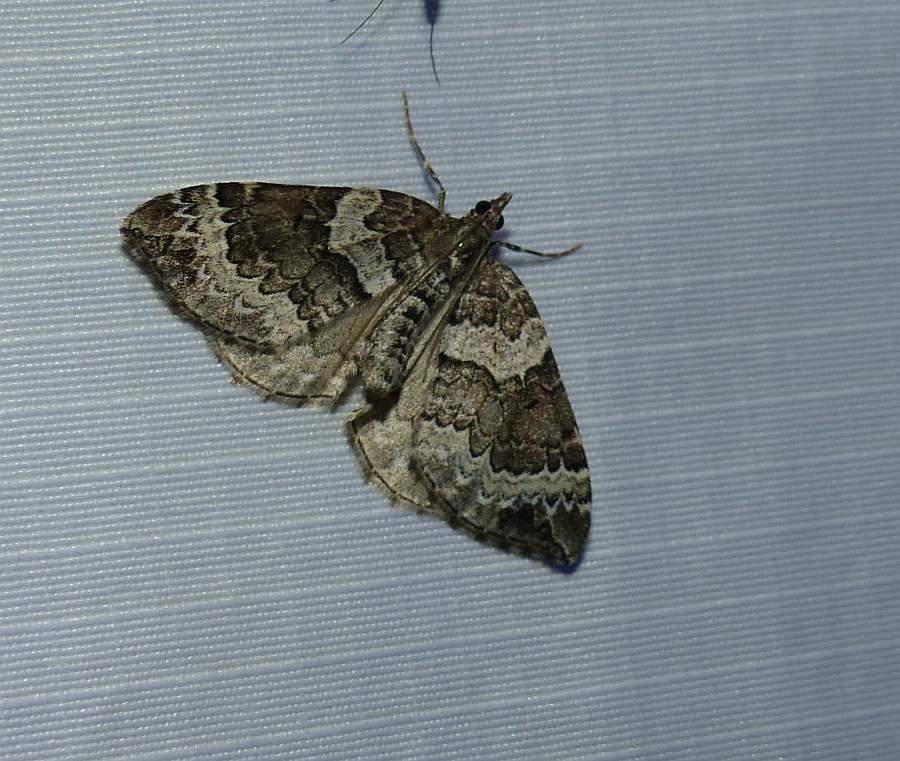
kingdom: Animalia
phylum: Arthropoda
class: Insecta
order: Lepidoptera
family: Geometridae
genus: Eulithis
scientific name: Eulithis explanata
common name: White eulithis
